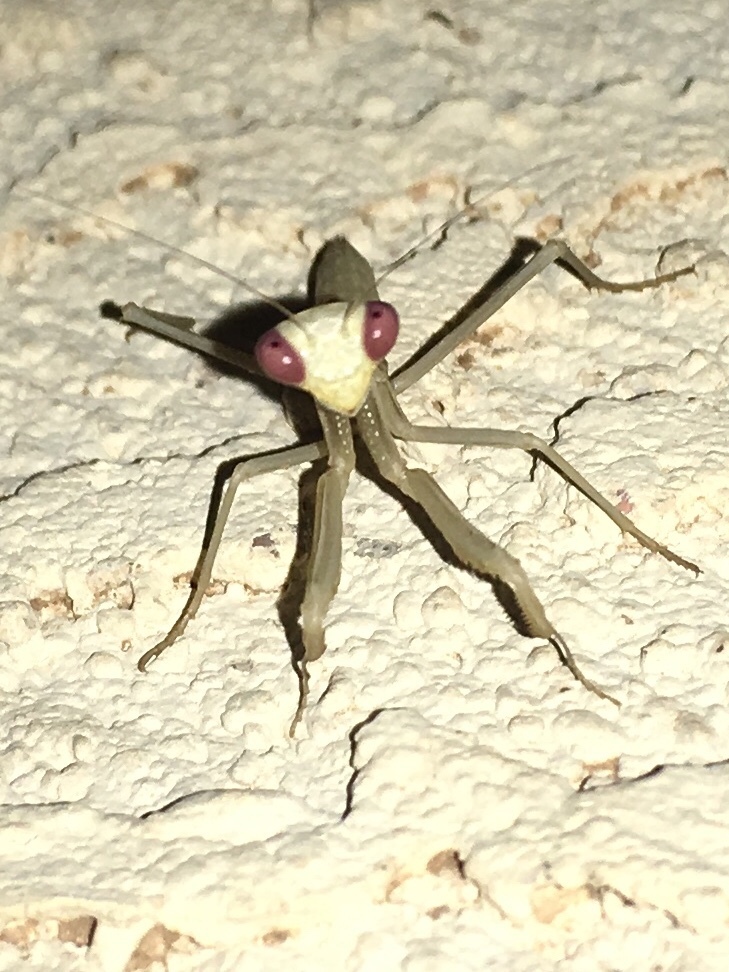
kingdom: Animalia
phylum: Arthropoda
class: Insecta
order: Mantodea
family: Eremiaphilidae
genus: Iris
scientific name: Iris oratoria
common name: Mediterranean mantis
